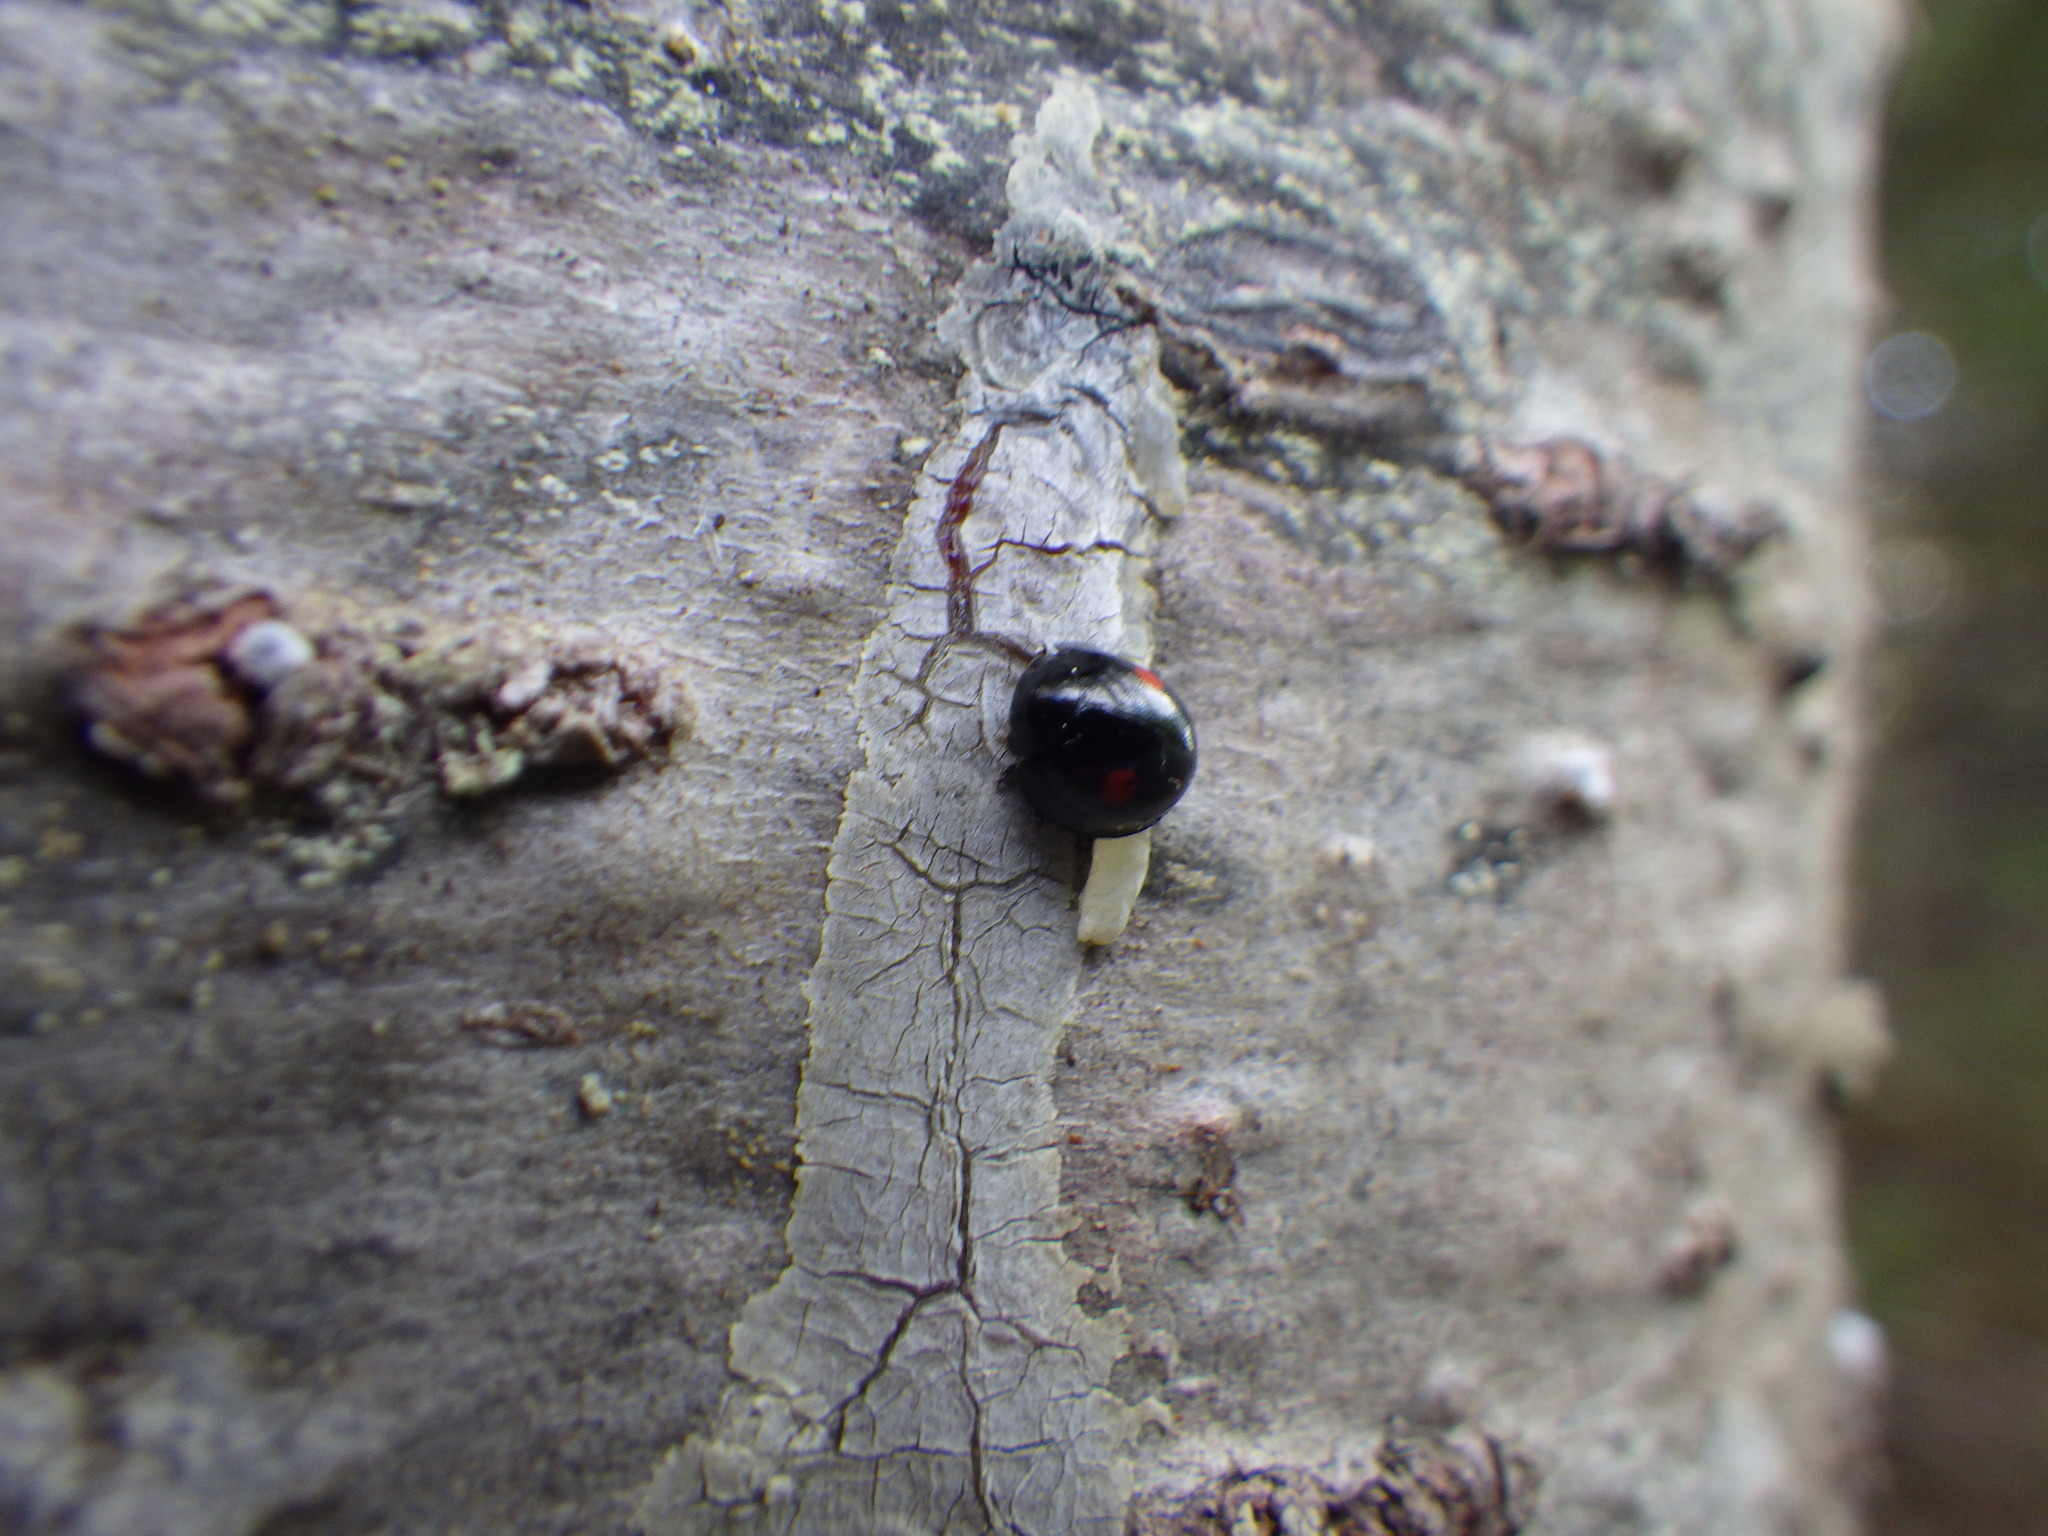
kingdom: Animalia
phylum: Arthropoda
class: Insecta
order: Coleoptera
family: Coccinellidae
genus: Chilocorus
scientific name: Chilocorus stigma
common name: Twicestabbed lady beetle
